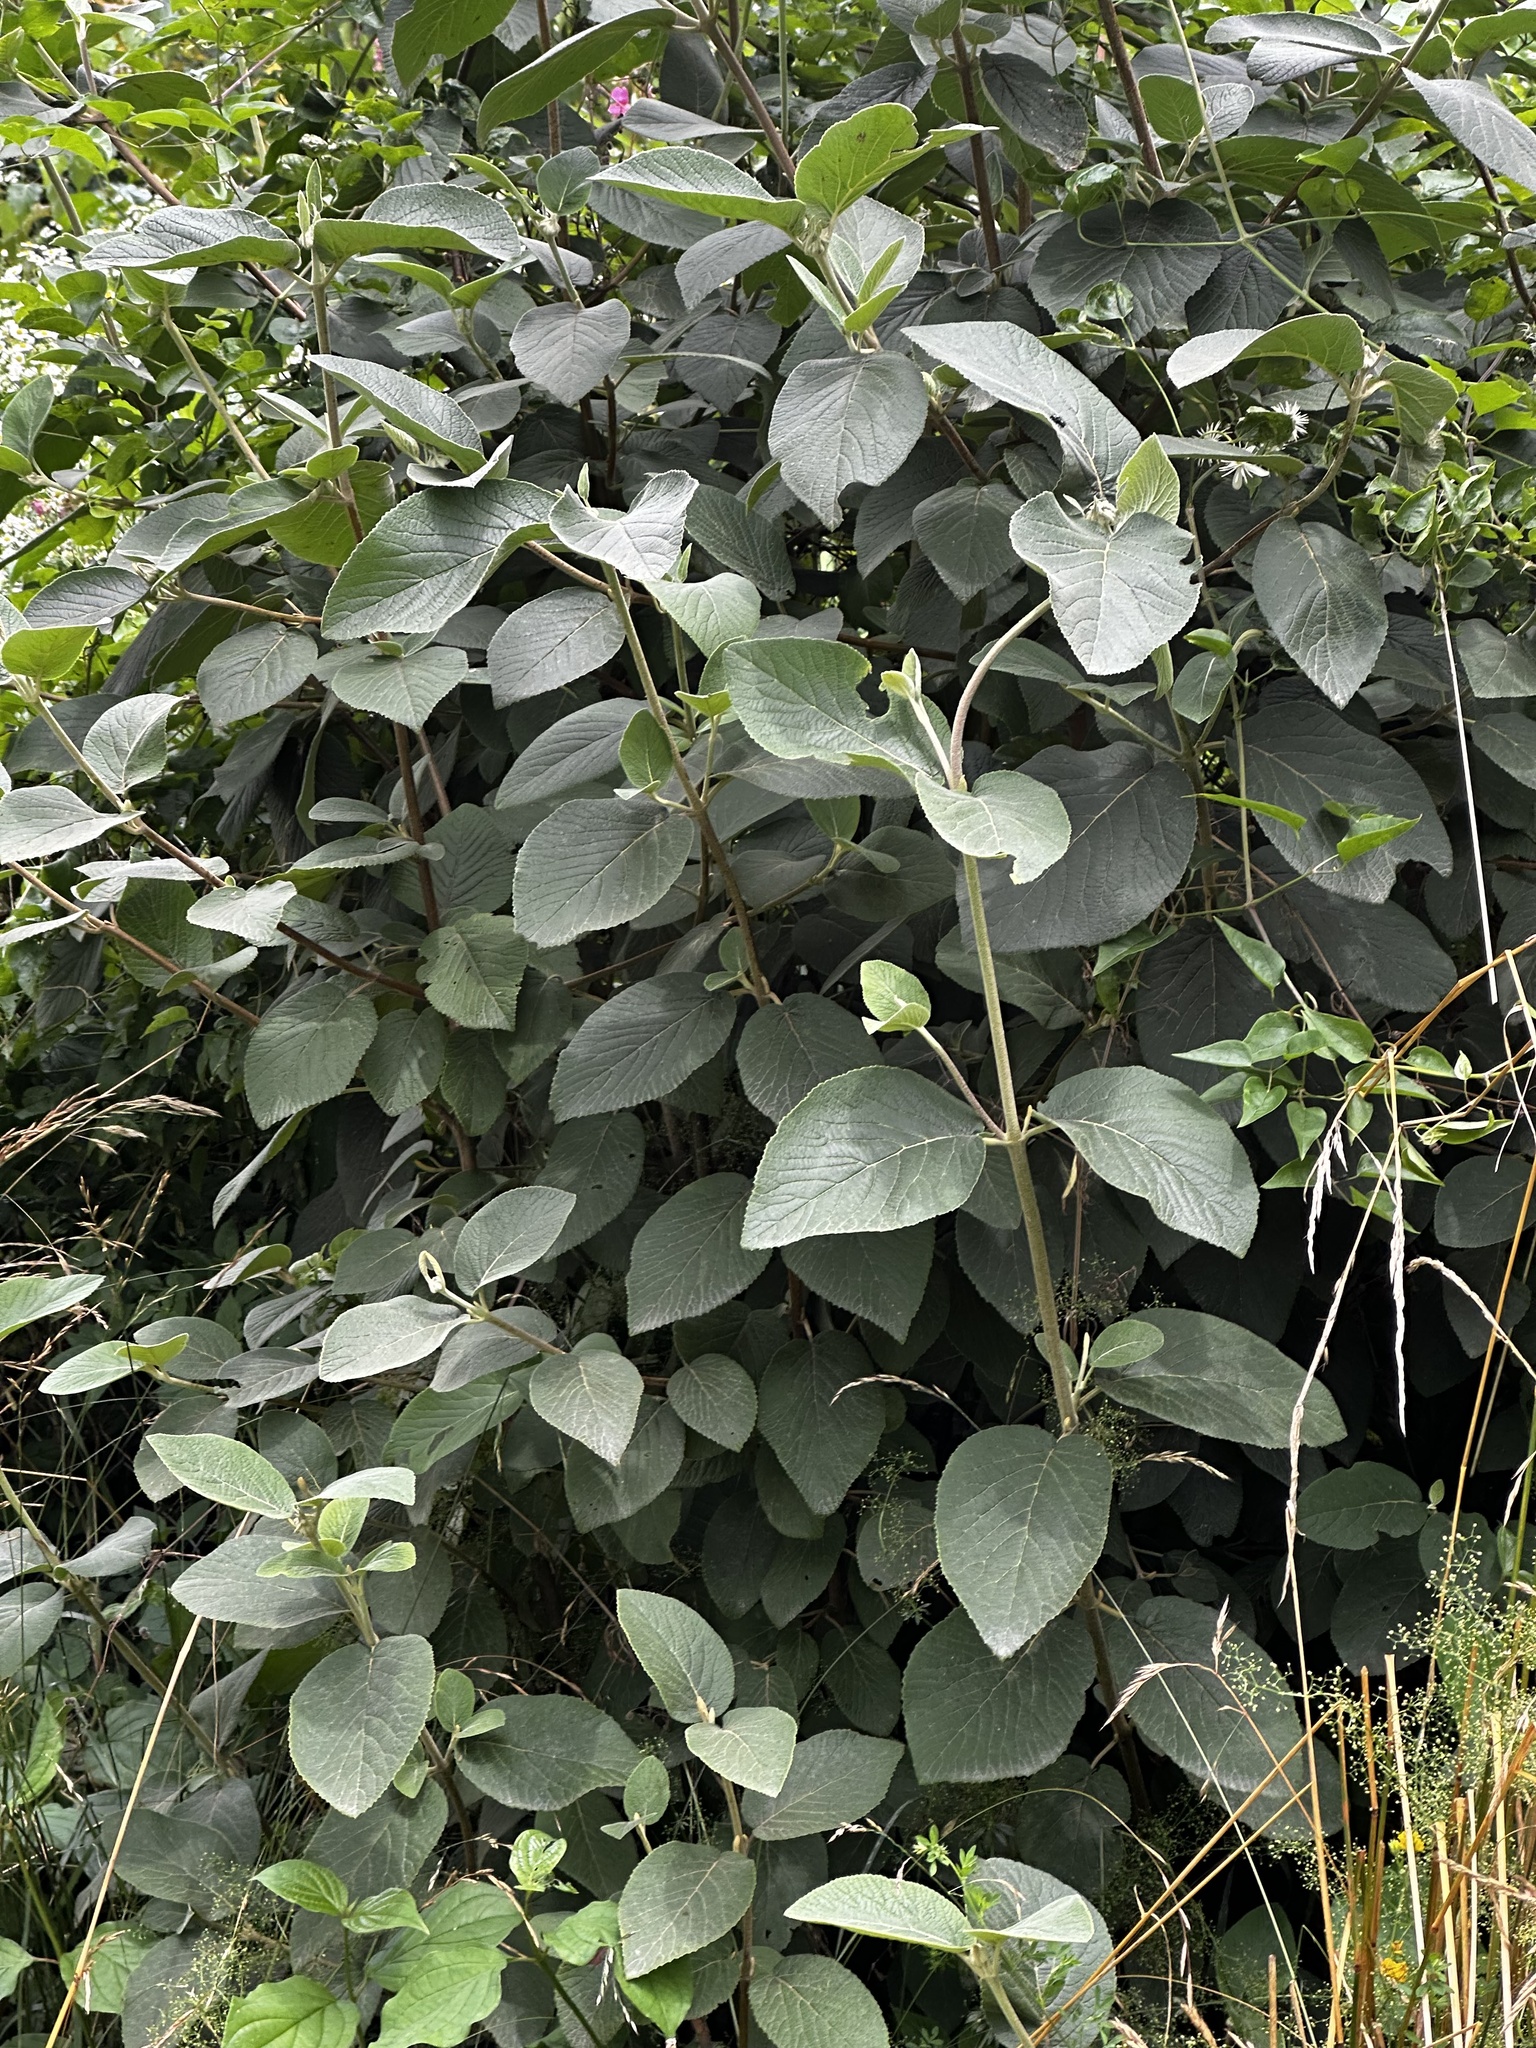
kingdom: Plantae
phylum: Tracheophyta
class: Magnoliopsida
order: Dipsacales
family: Viburnaceae
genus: Viburnum
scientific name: Viburnum lantana
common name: Wayfaring tree
